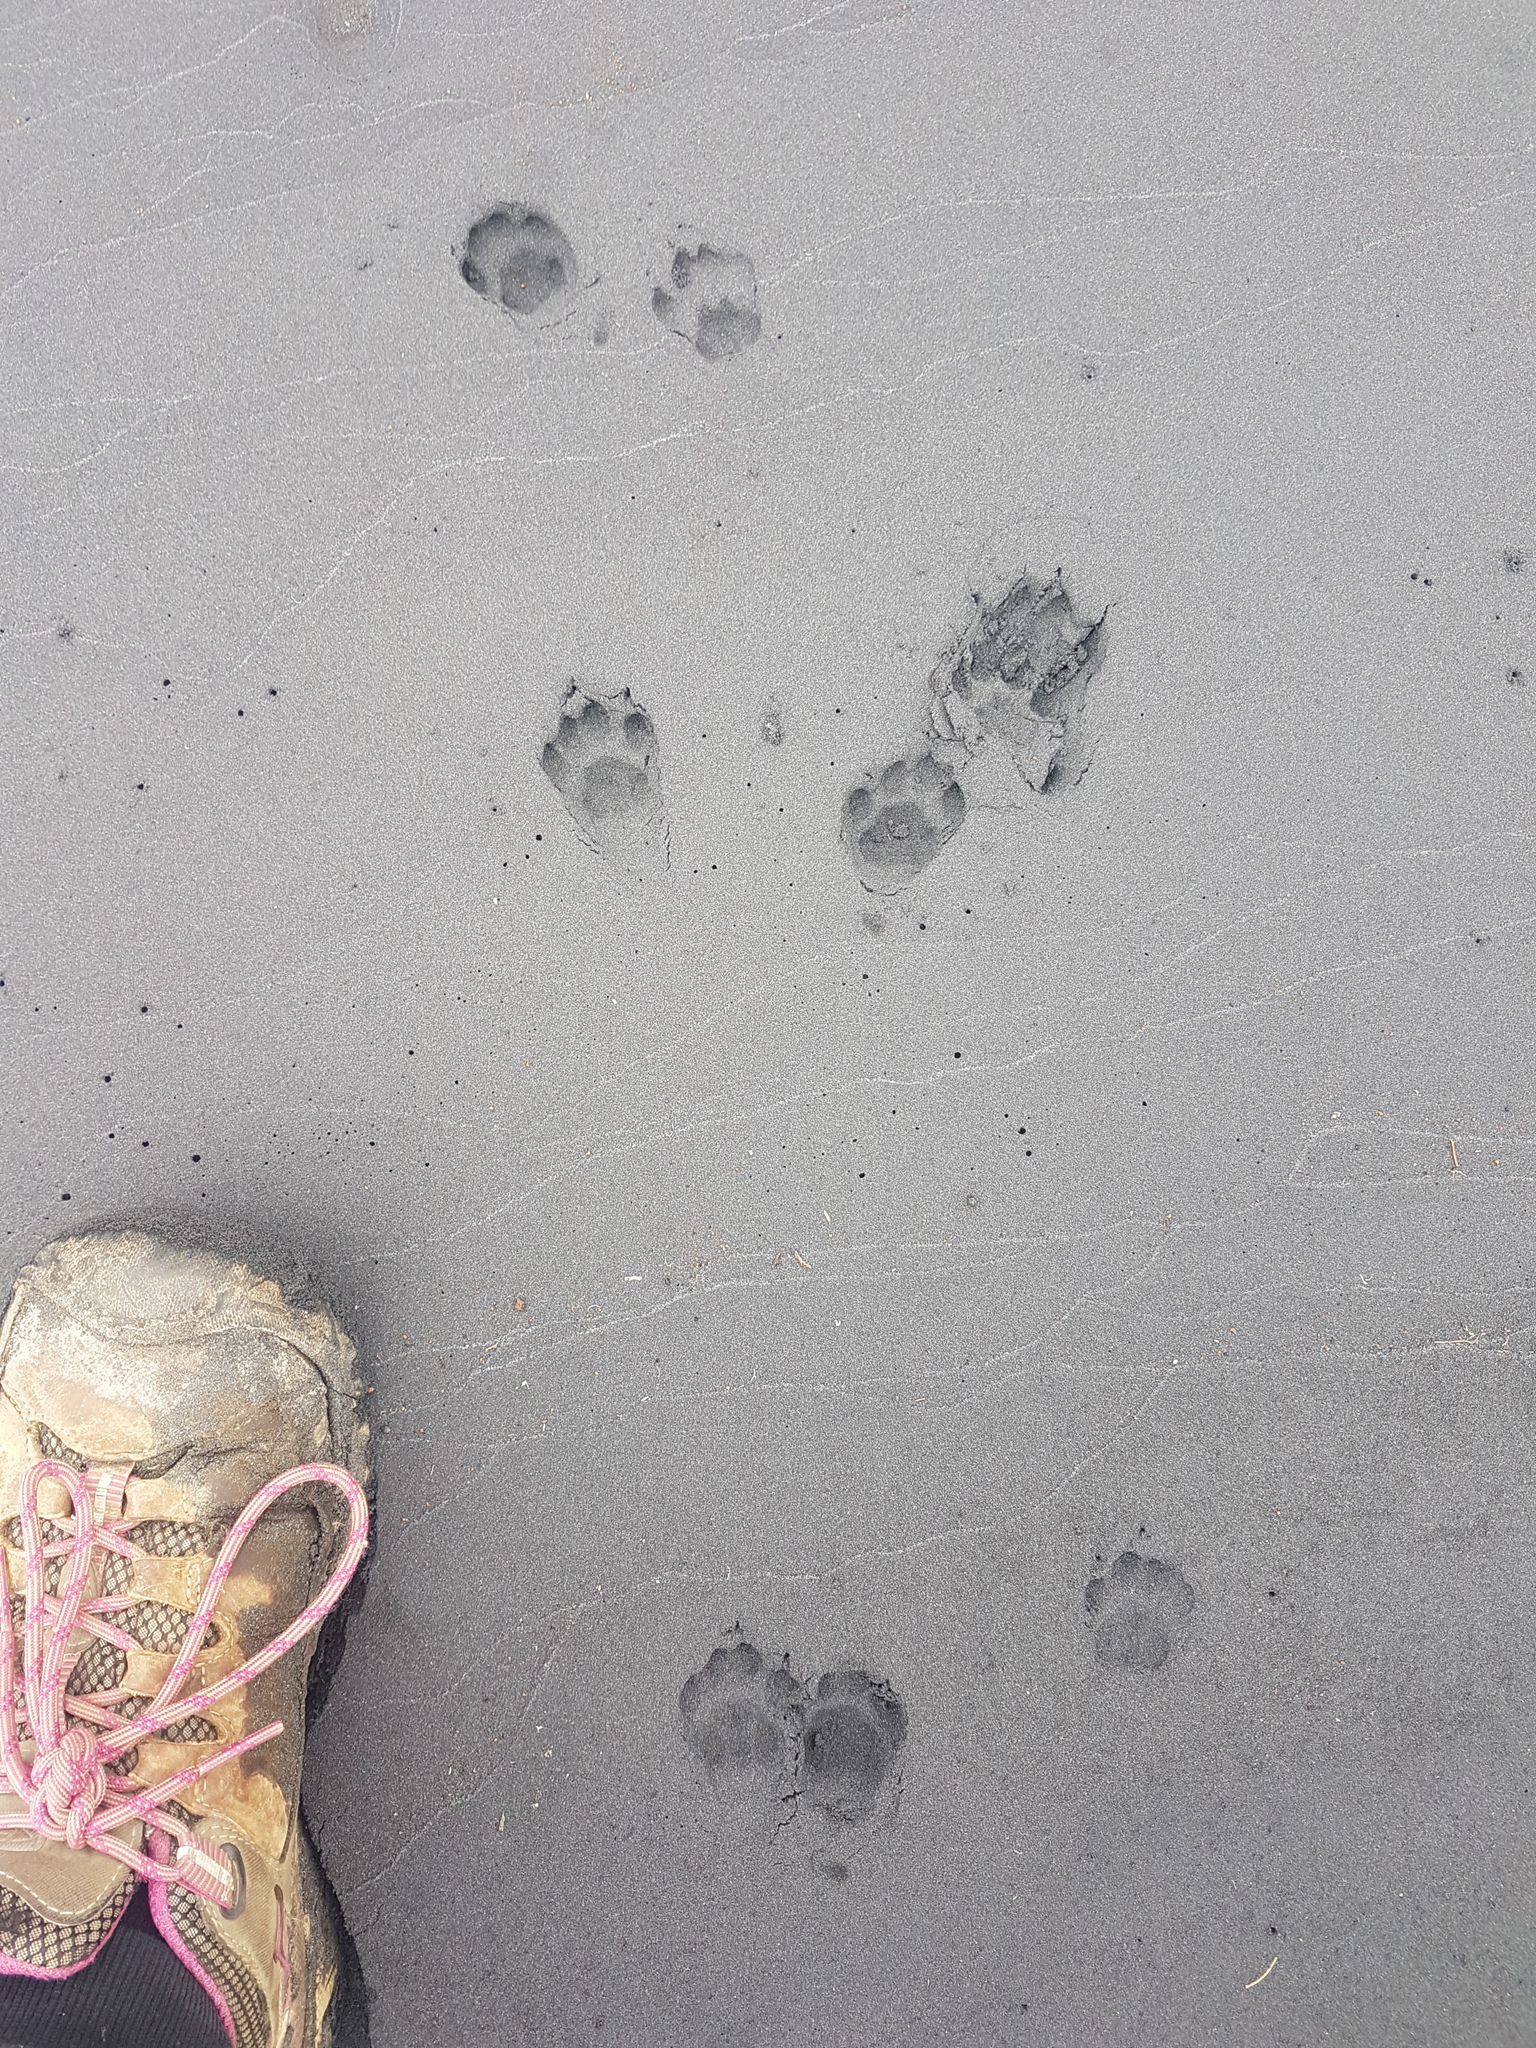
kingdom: Animalia
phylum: Chordata
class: Mammalia
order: Carnivora
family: Felidae
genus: Felis
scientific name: Felis catus
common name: Domestic cat
